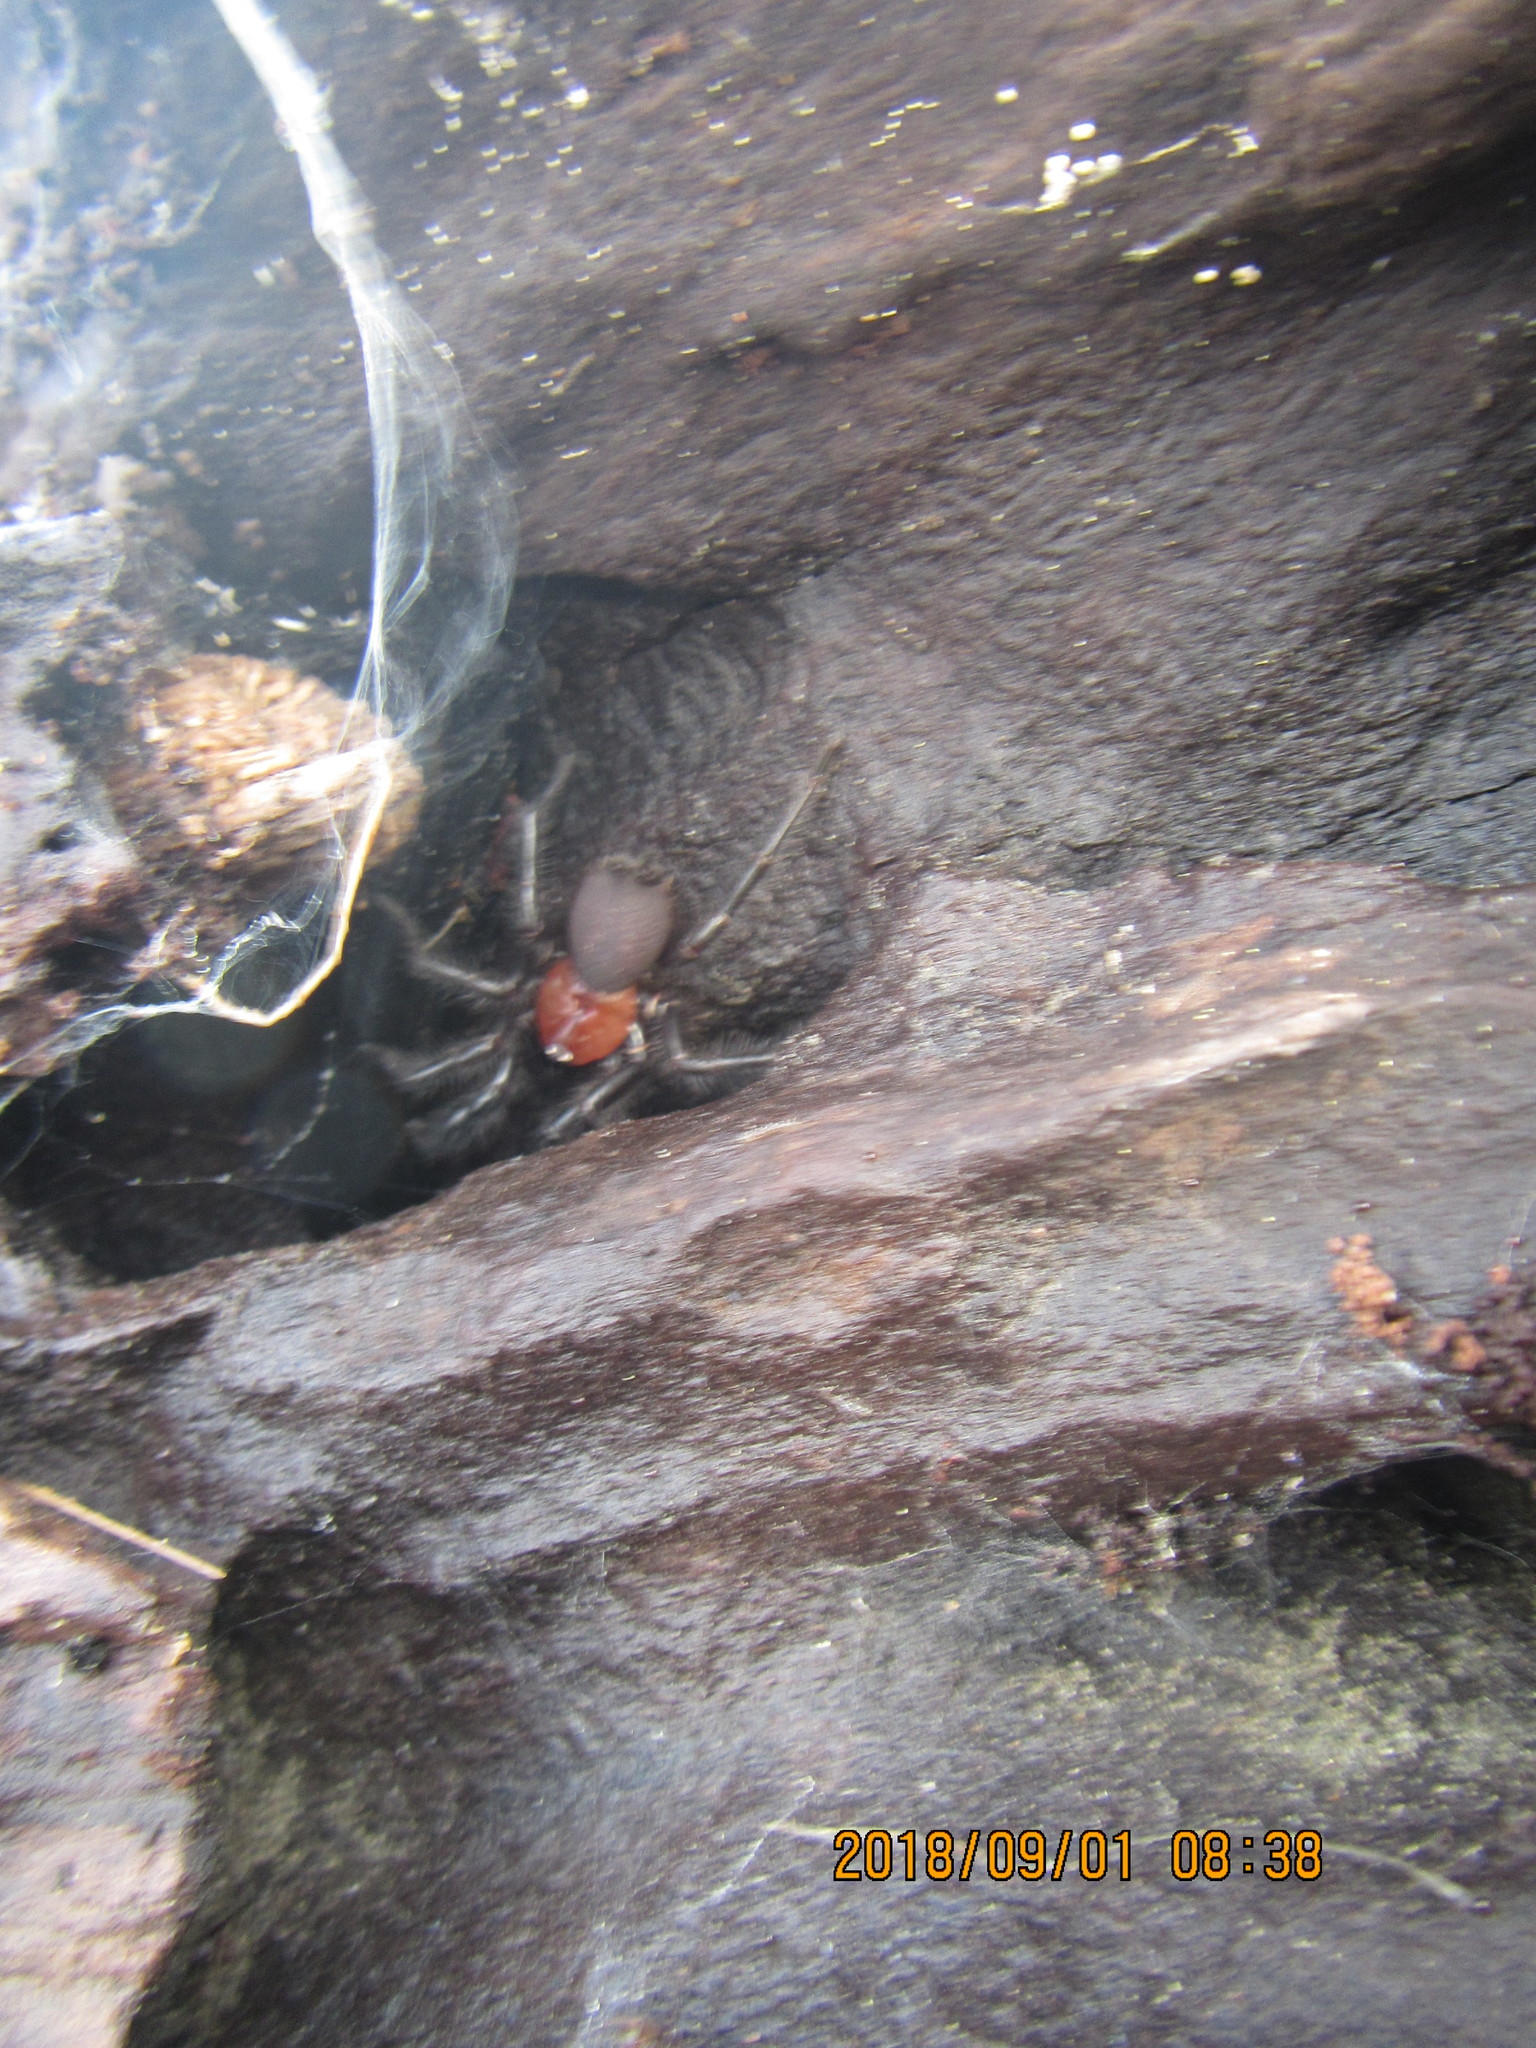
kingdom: Animalia
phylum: Arthropoda
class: Arachnida
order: Araneae
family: Porrhothelidae
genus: Porrhothele
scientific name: Porrhothele antipodiana
